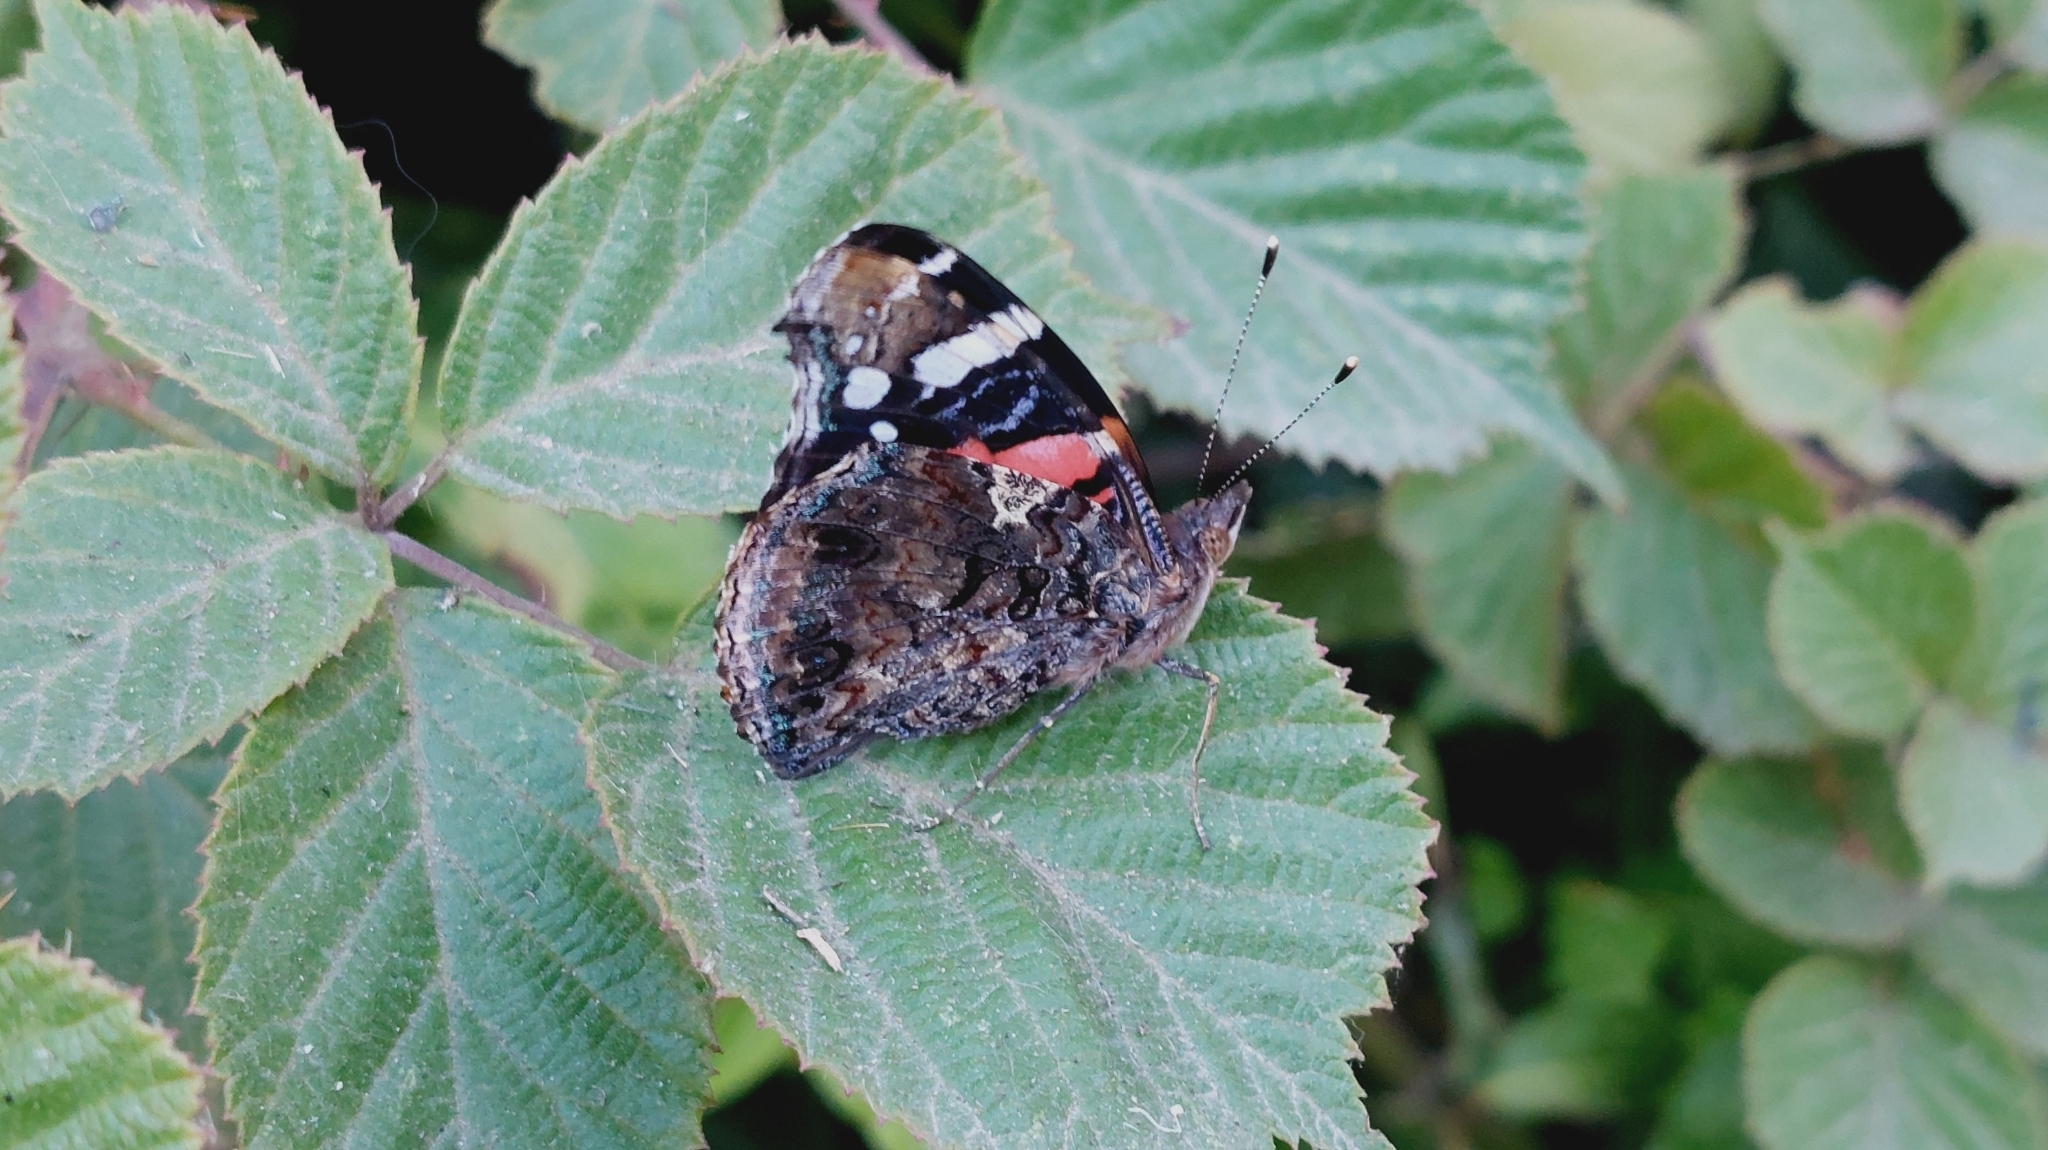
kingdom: Animalia
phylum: Arthropoda
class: Insecta
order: Lepidoptera
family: Nymphalidae
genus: Vanessa
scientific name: Vanessa atalanta
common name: Red admiral
